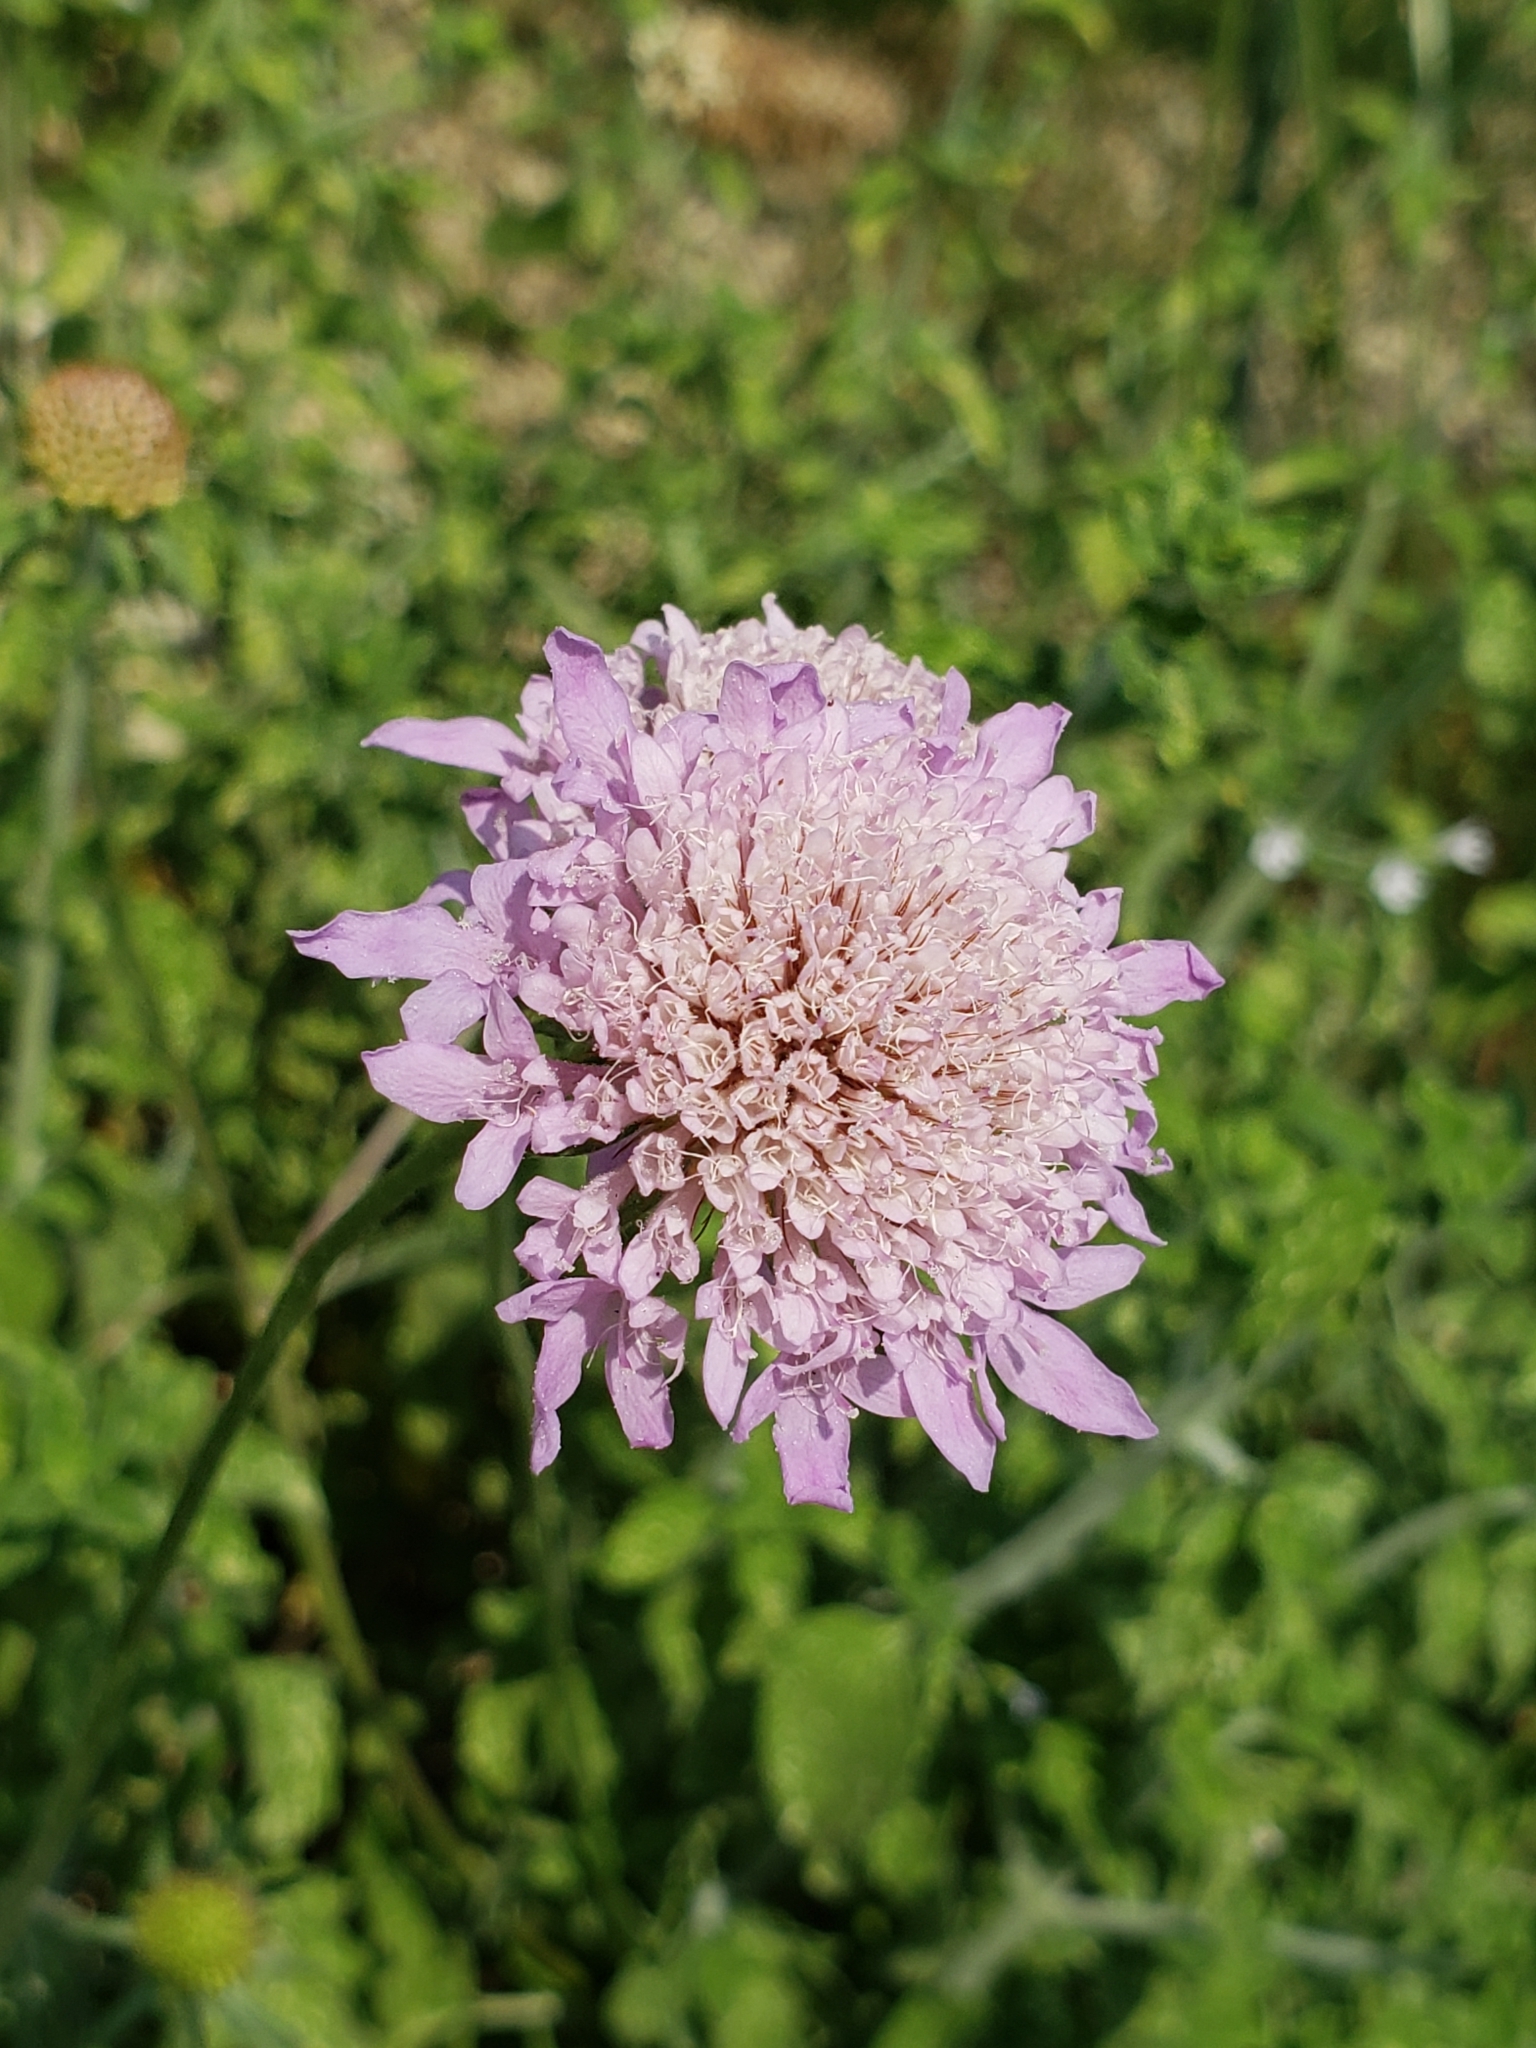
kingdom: Plantae
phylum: Tracheophyta
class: Magnoliopsida
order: Dipsacales
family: Caprifoliaceae
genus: Knautia
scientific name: Knautia arvensis
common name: Field scabiosa
